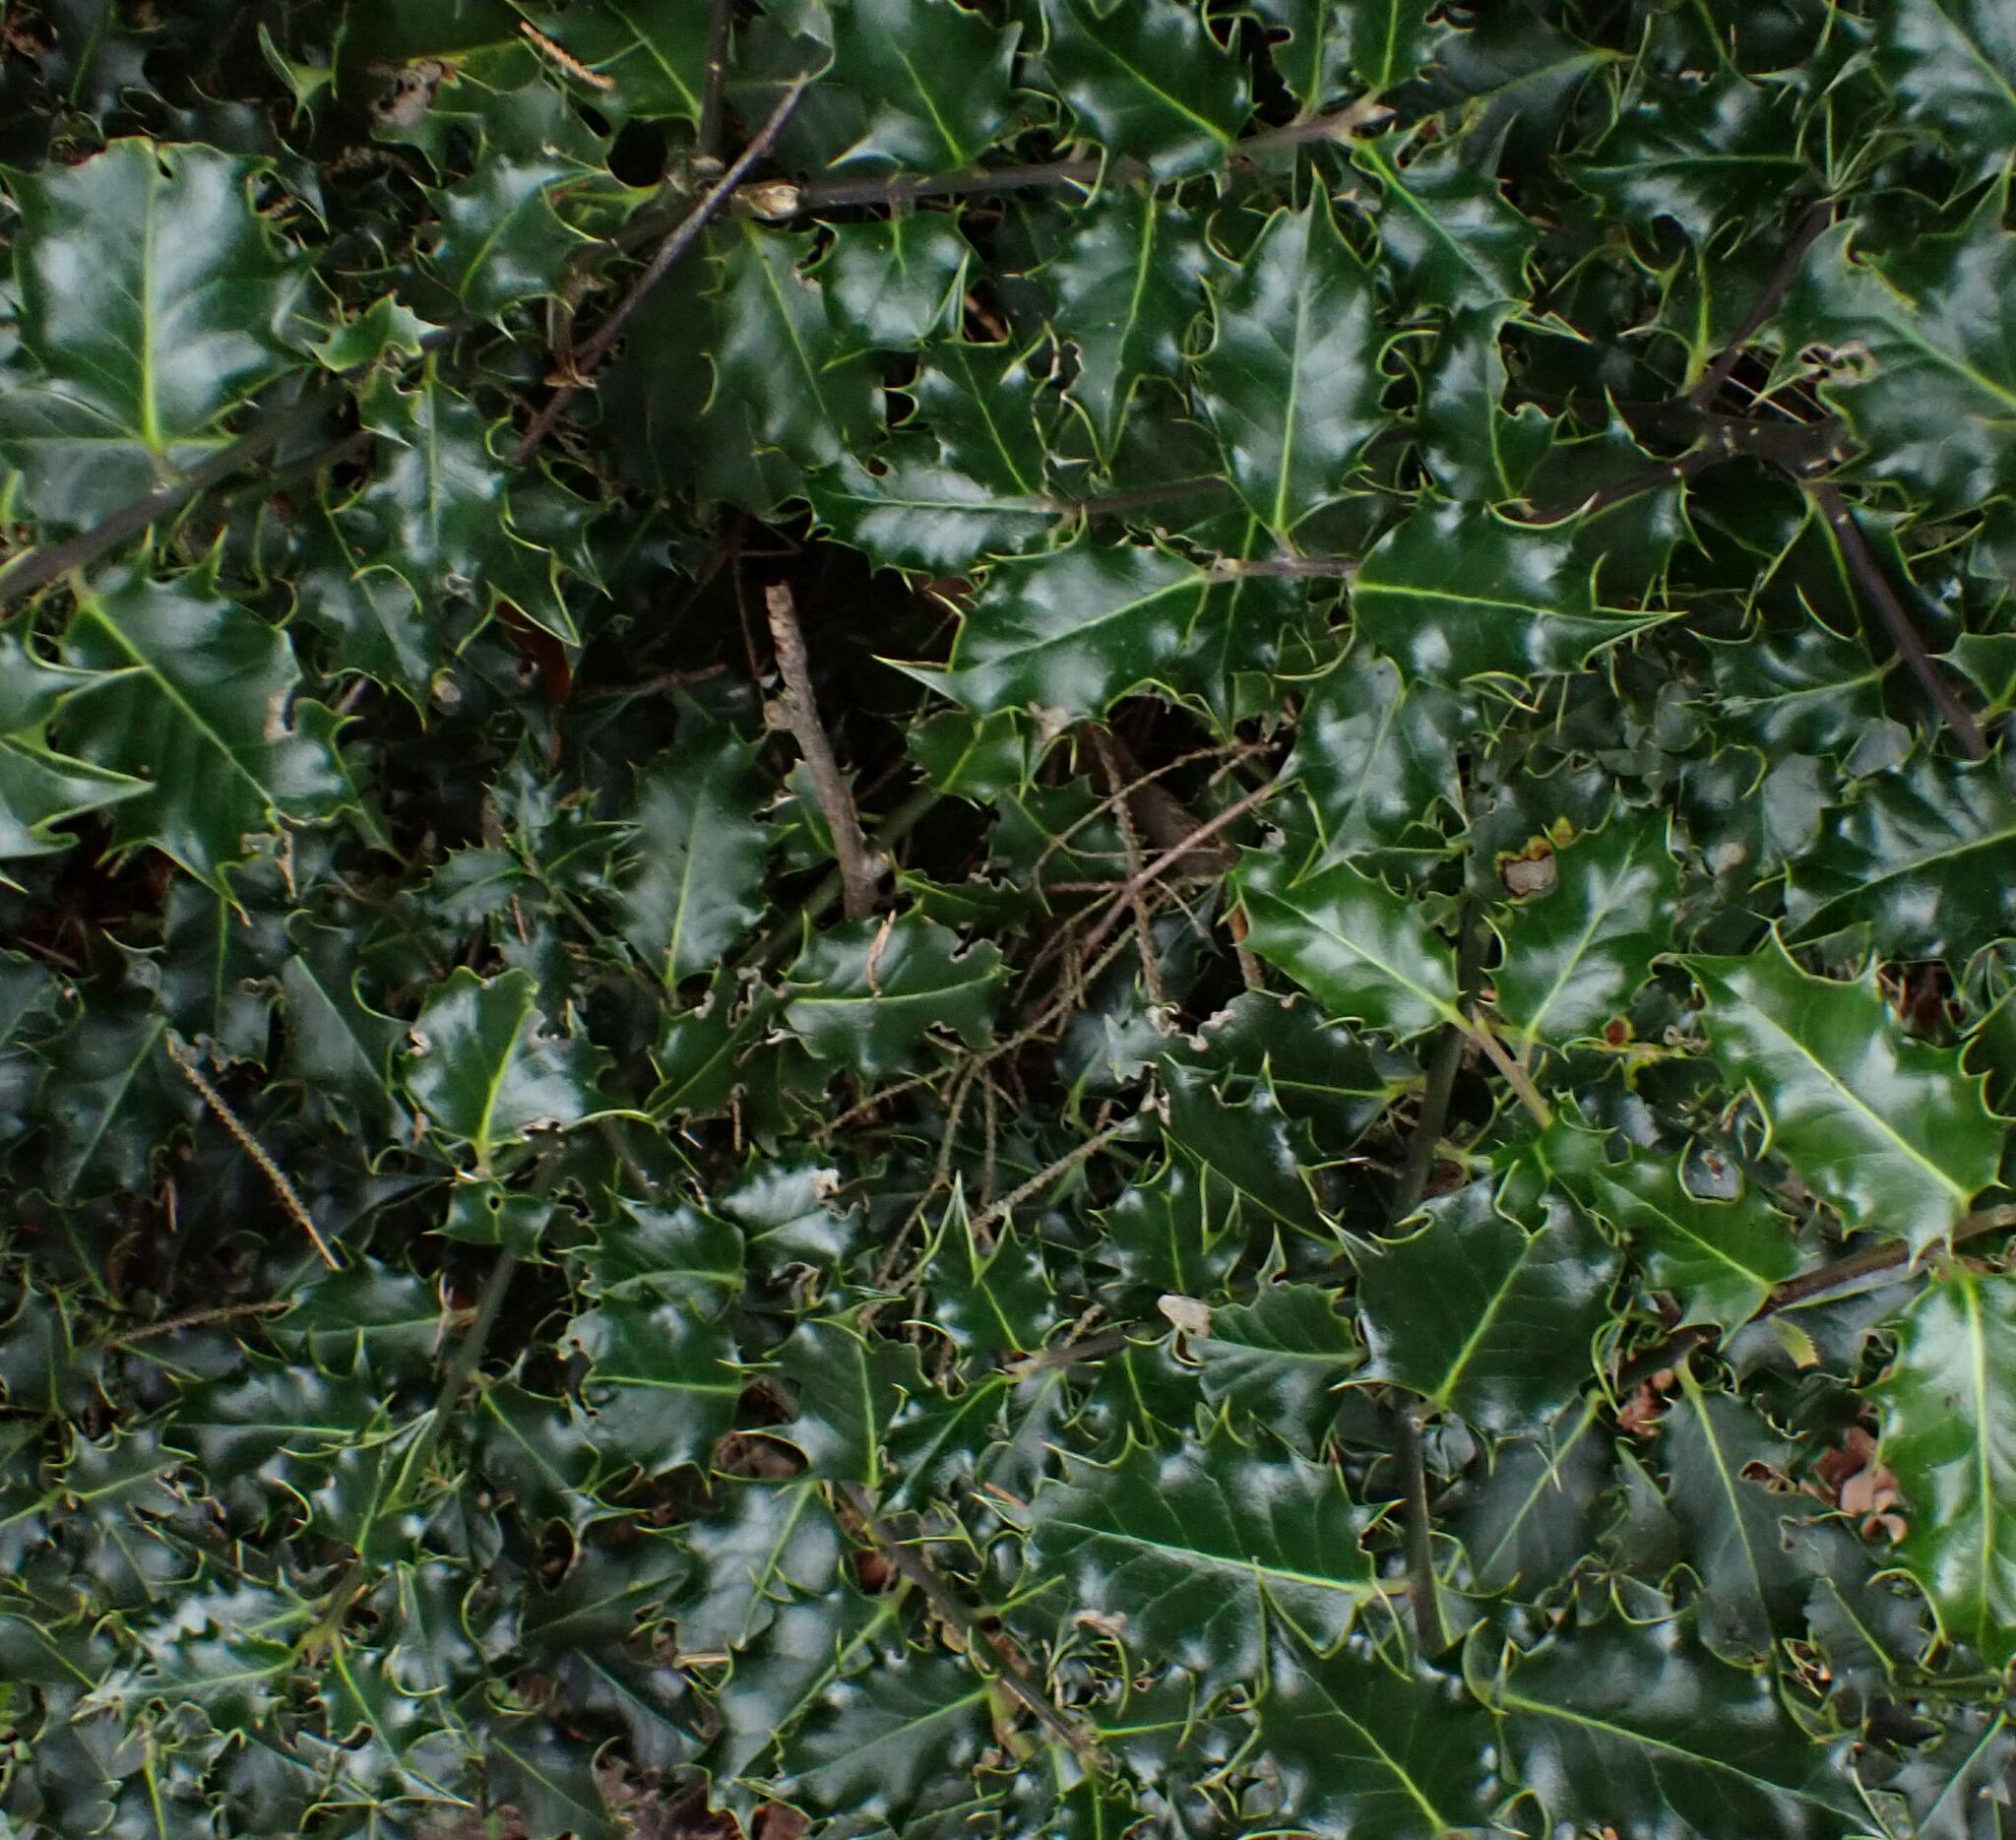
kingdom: Plantae
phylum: Tracheophyta
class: Magnoliopsida
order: Aquifoliales
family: Aquifoliaceae
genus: Ilex
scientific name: Ilex aquifolium
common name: English holly
